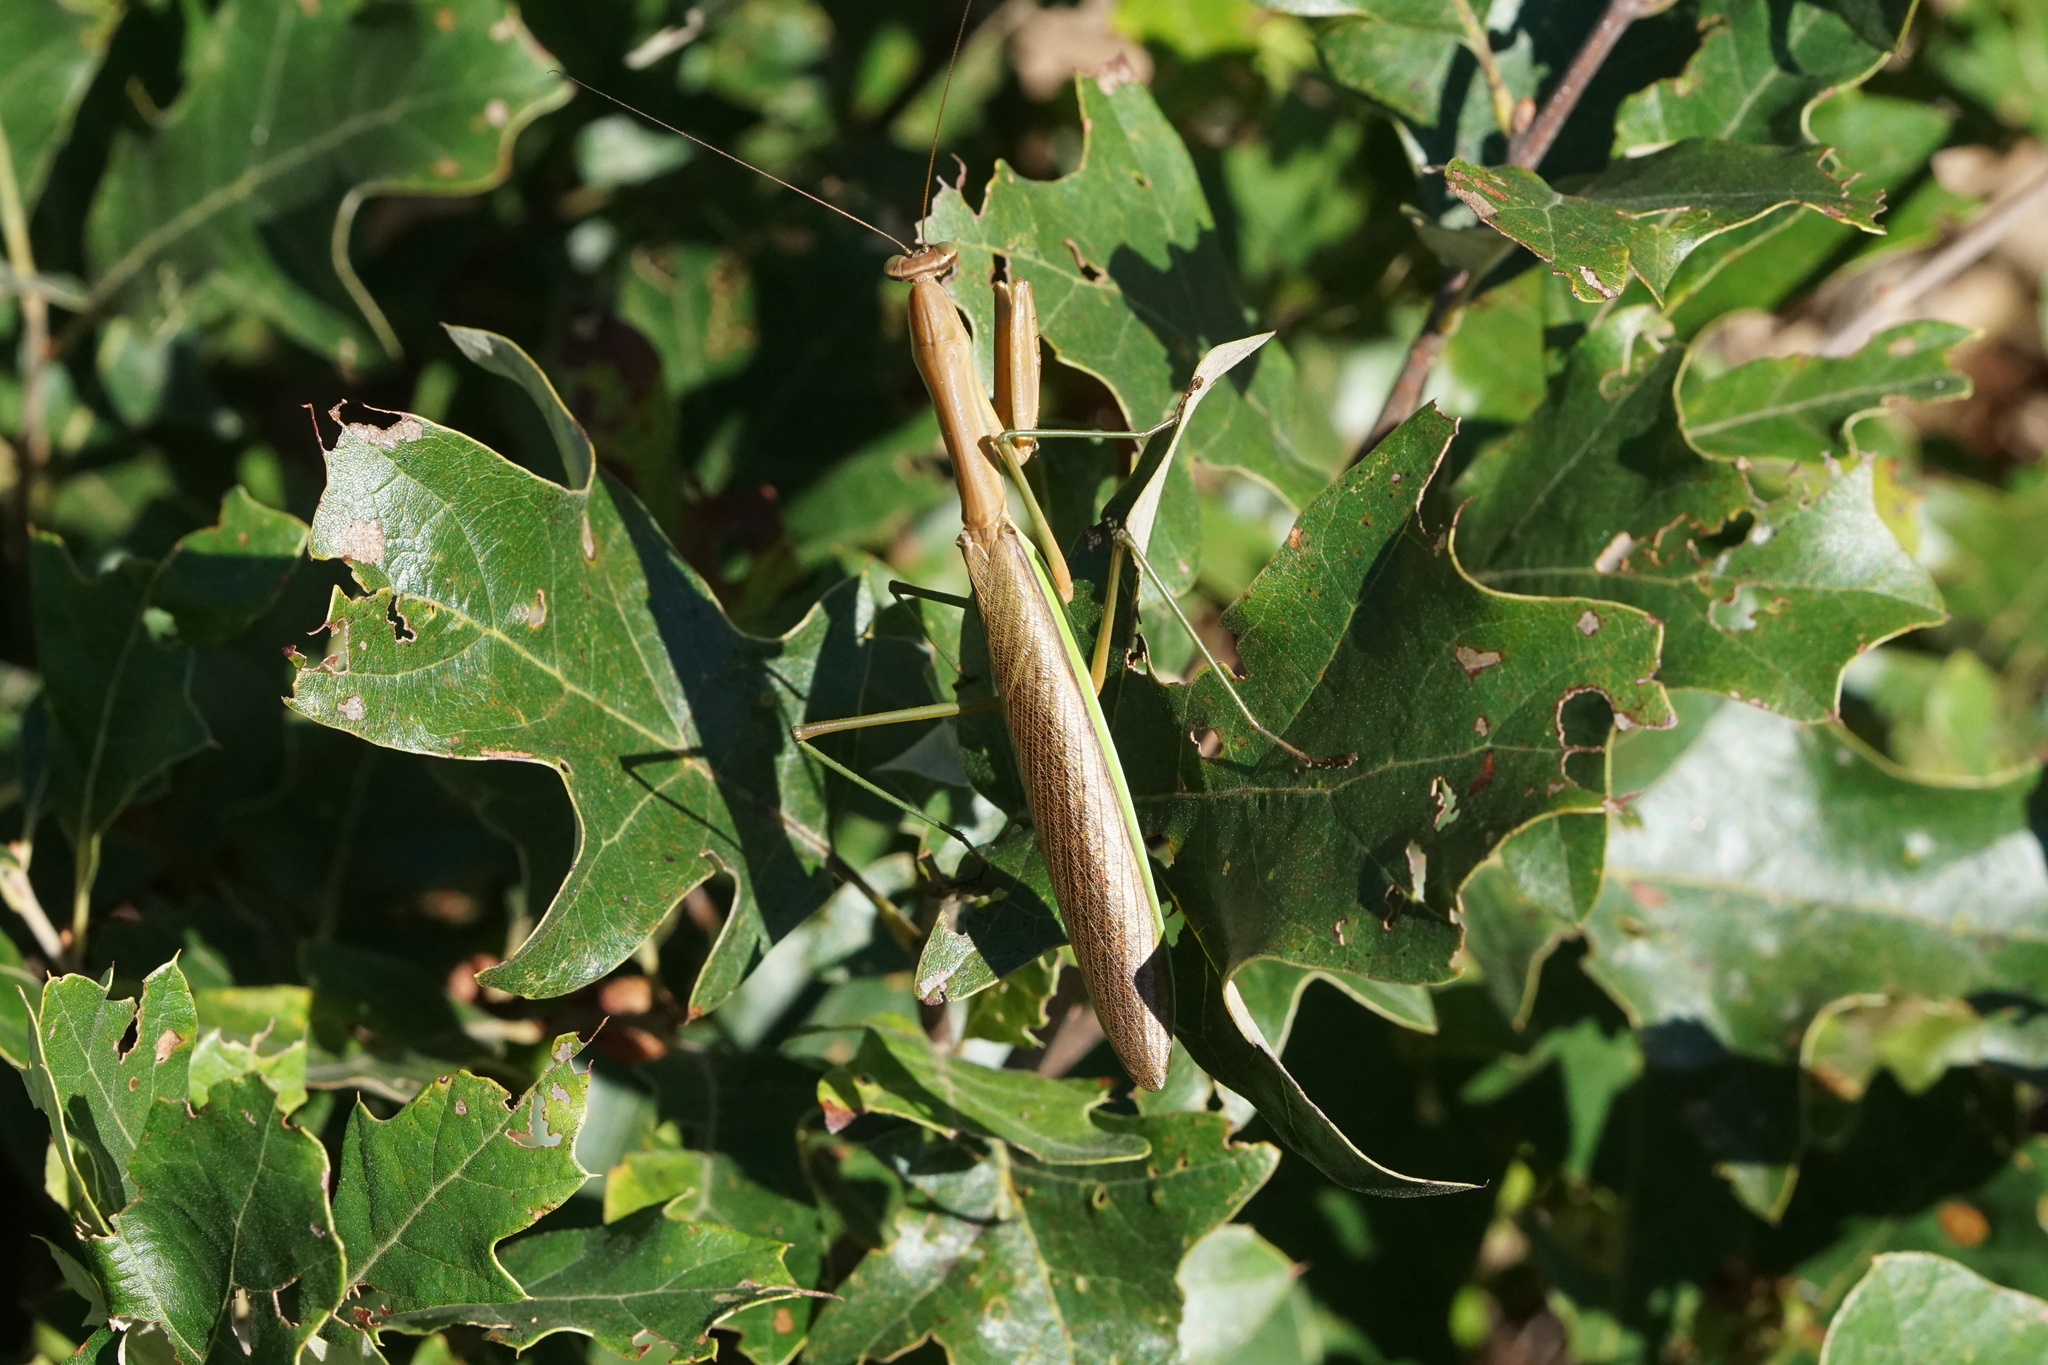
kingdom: Animalia
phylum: Arthropoda
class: Insecta
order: Mantodea
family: Mantidae
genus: Tenodera
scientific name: Tenodera sinensis
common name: Chinese mantis
